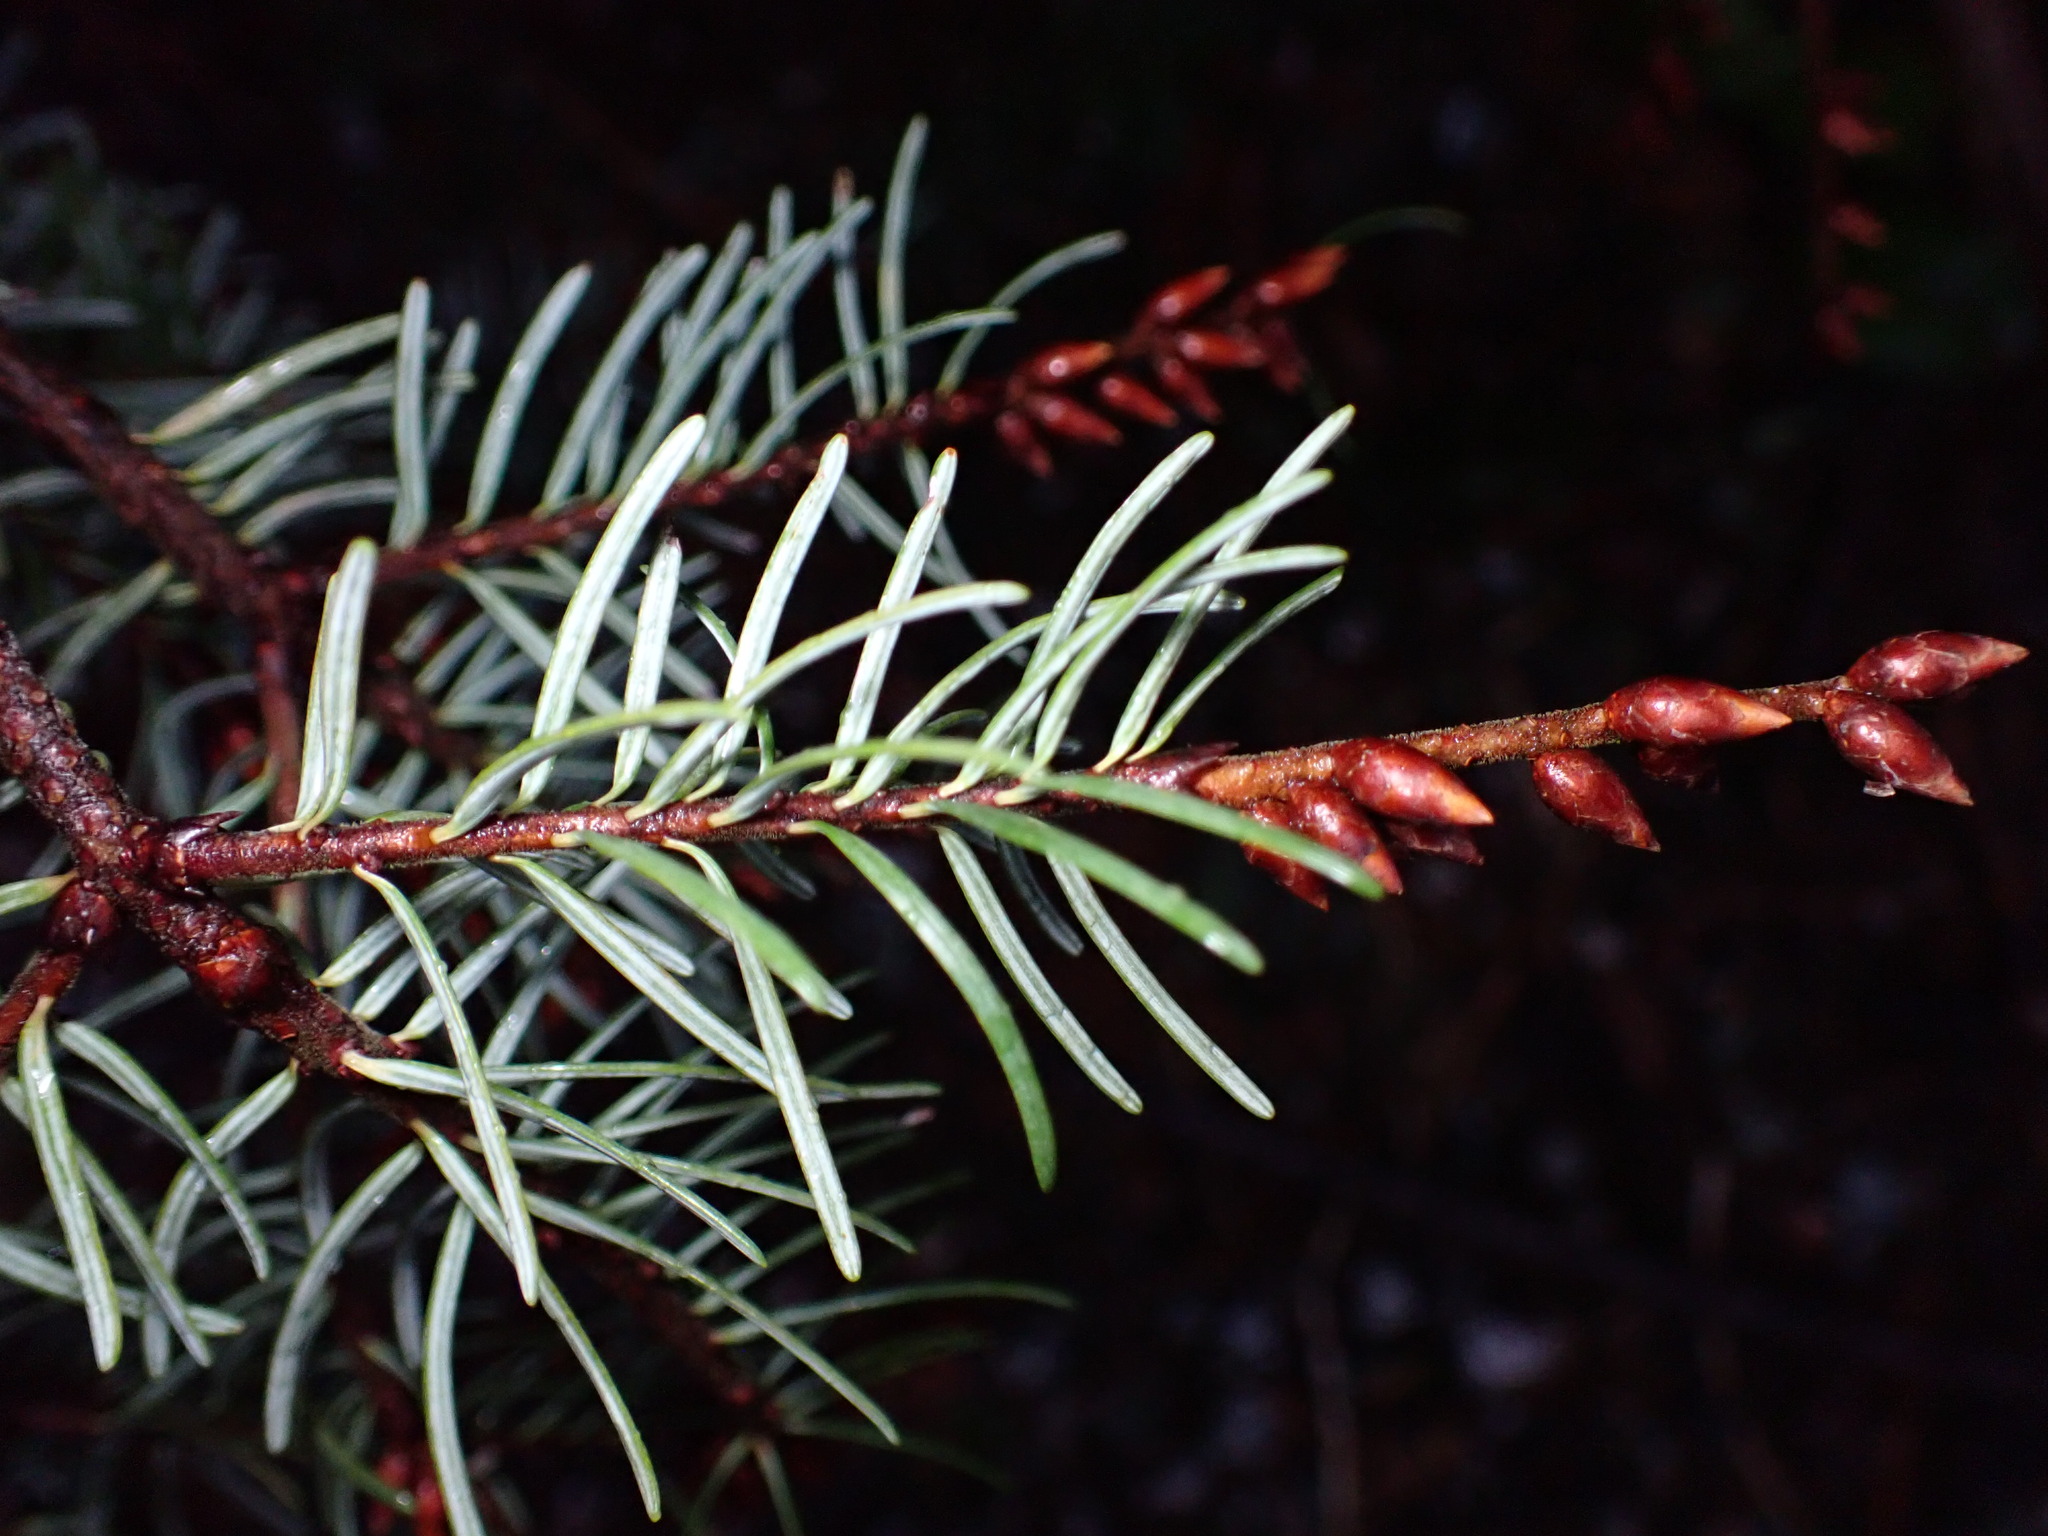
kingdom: Plantae
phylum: Tracheophyta
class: Pinopsida
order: Pinales
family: Pinaceae
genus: Pseudotsuga
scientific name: Pseudotsuga menziesii
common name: Douglas fir
